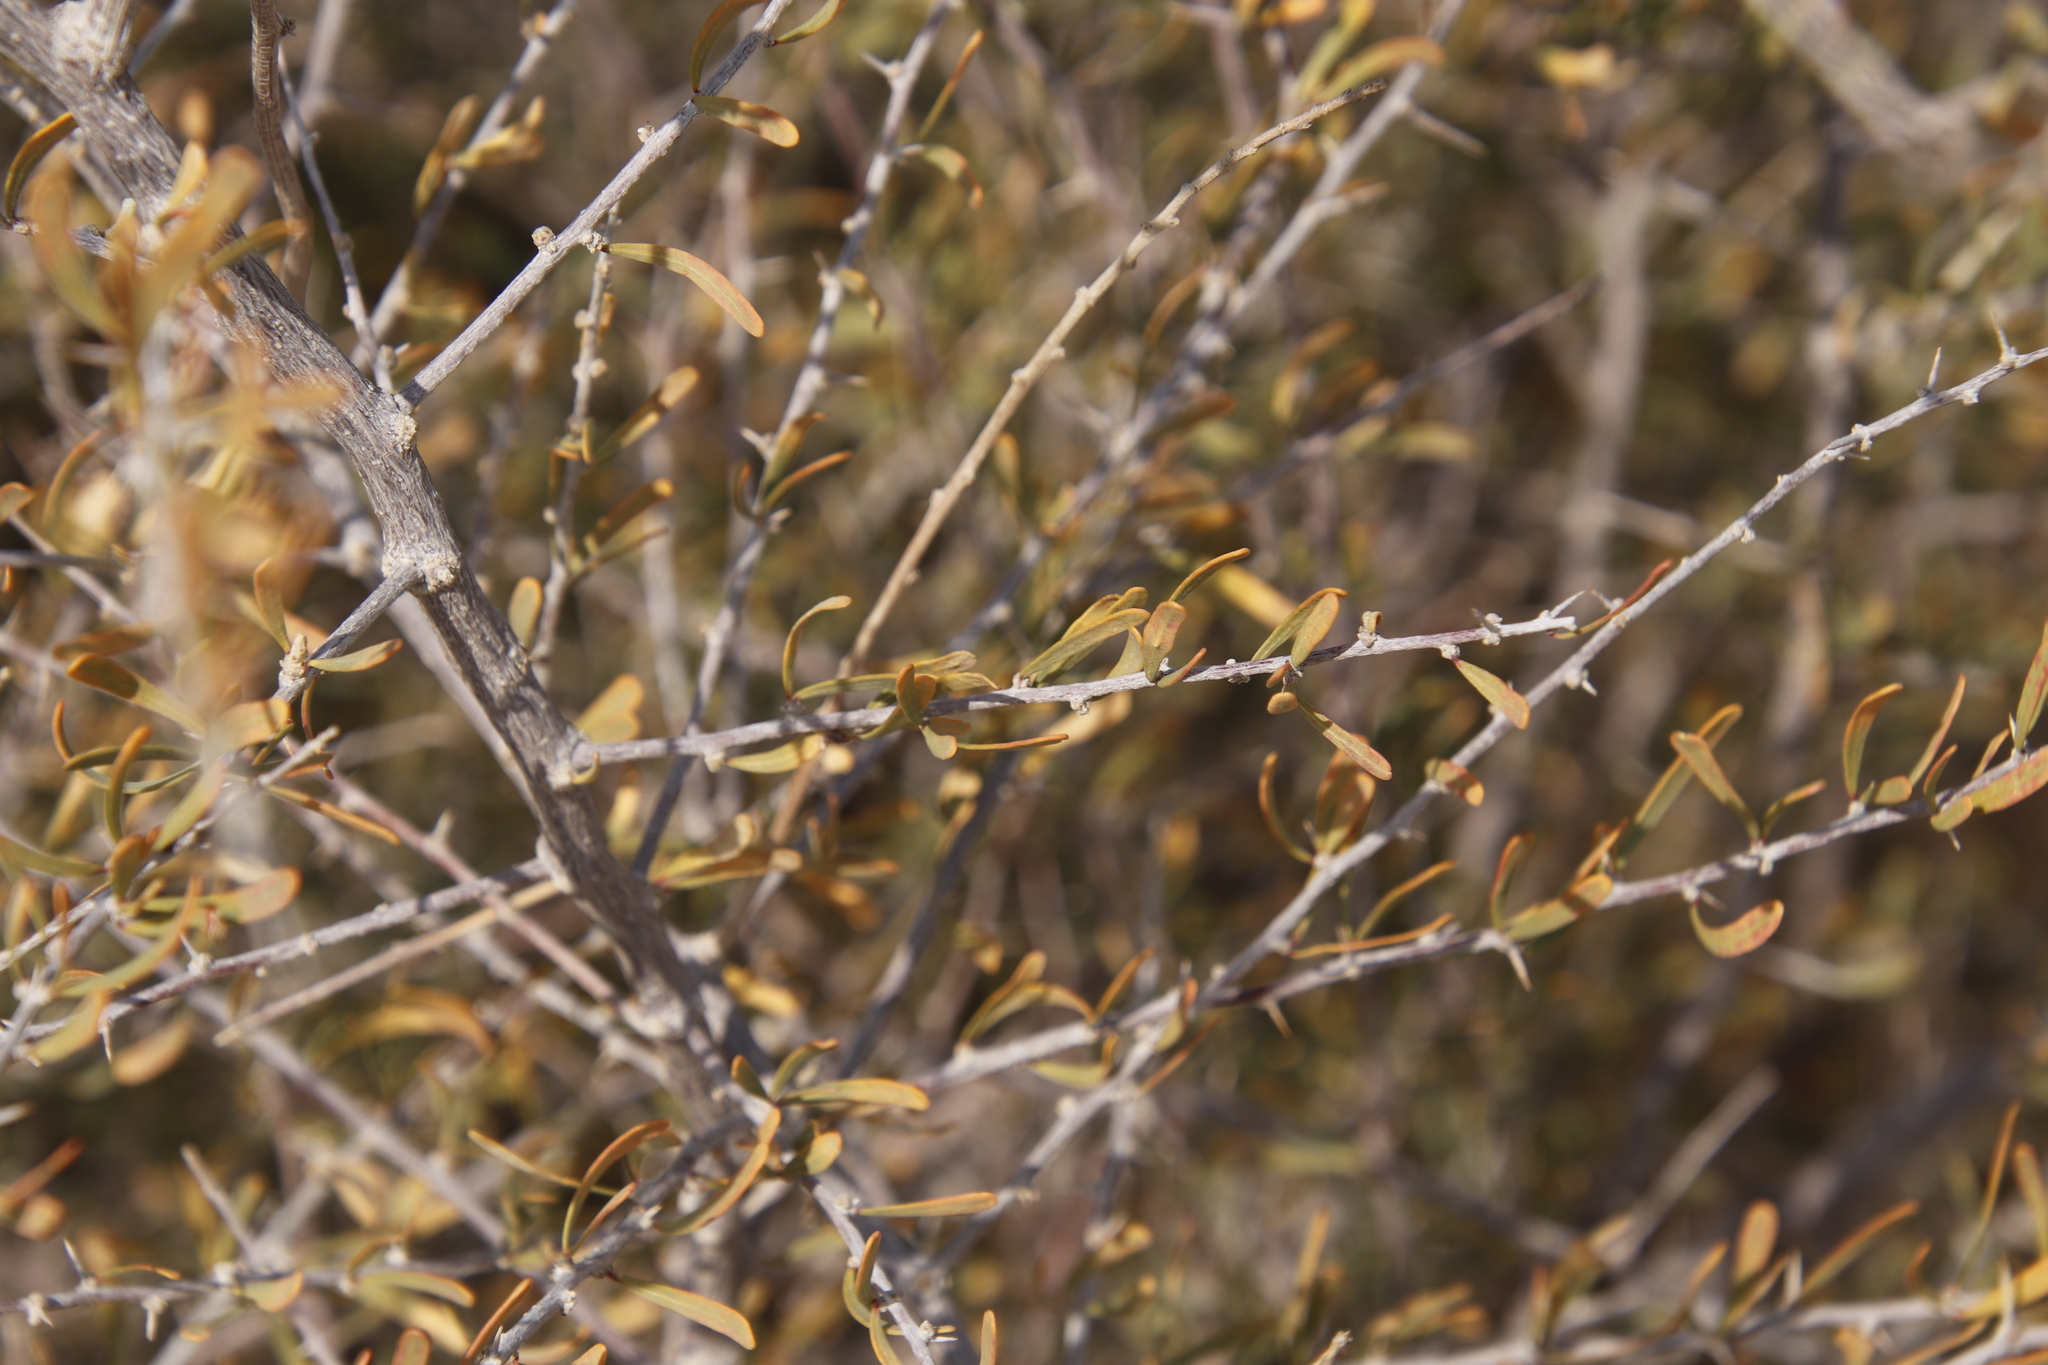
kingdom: Plantae
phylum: Tracheophyta
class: Magnoliopsida
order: Caryophyllales
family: Nyctaginaceae
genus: Phaeoptilum
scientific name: Phaeoptilum spinosum
